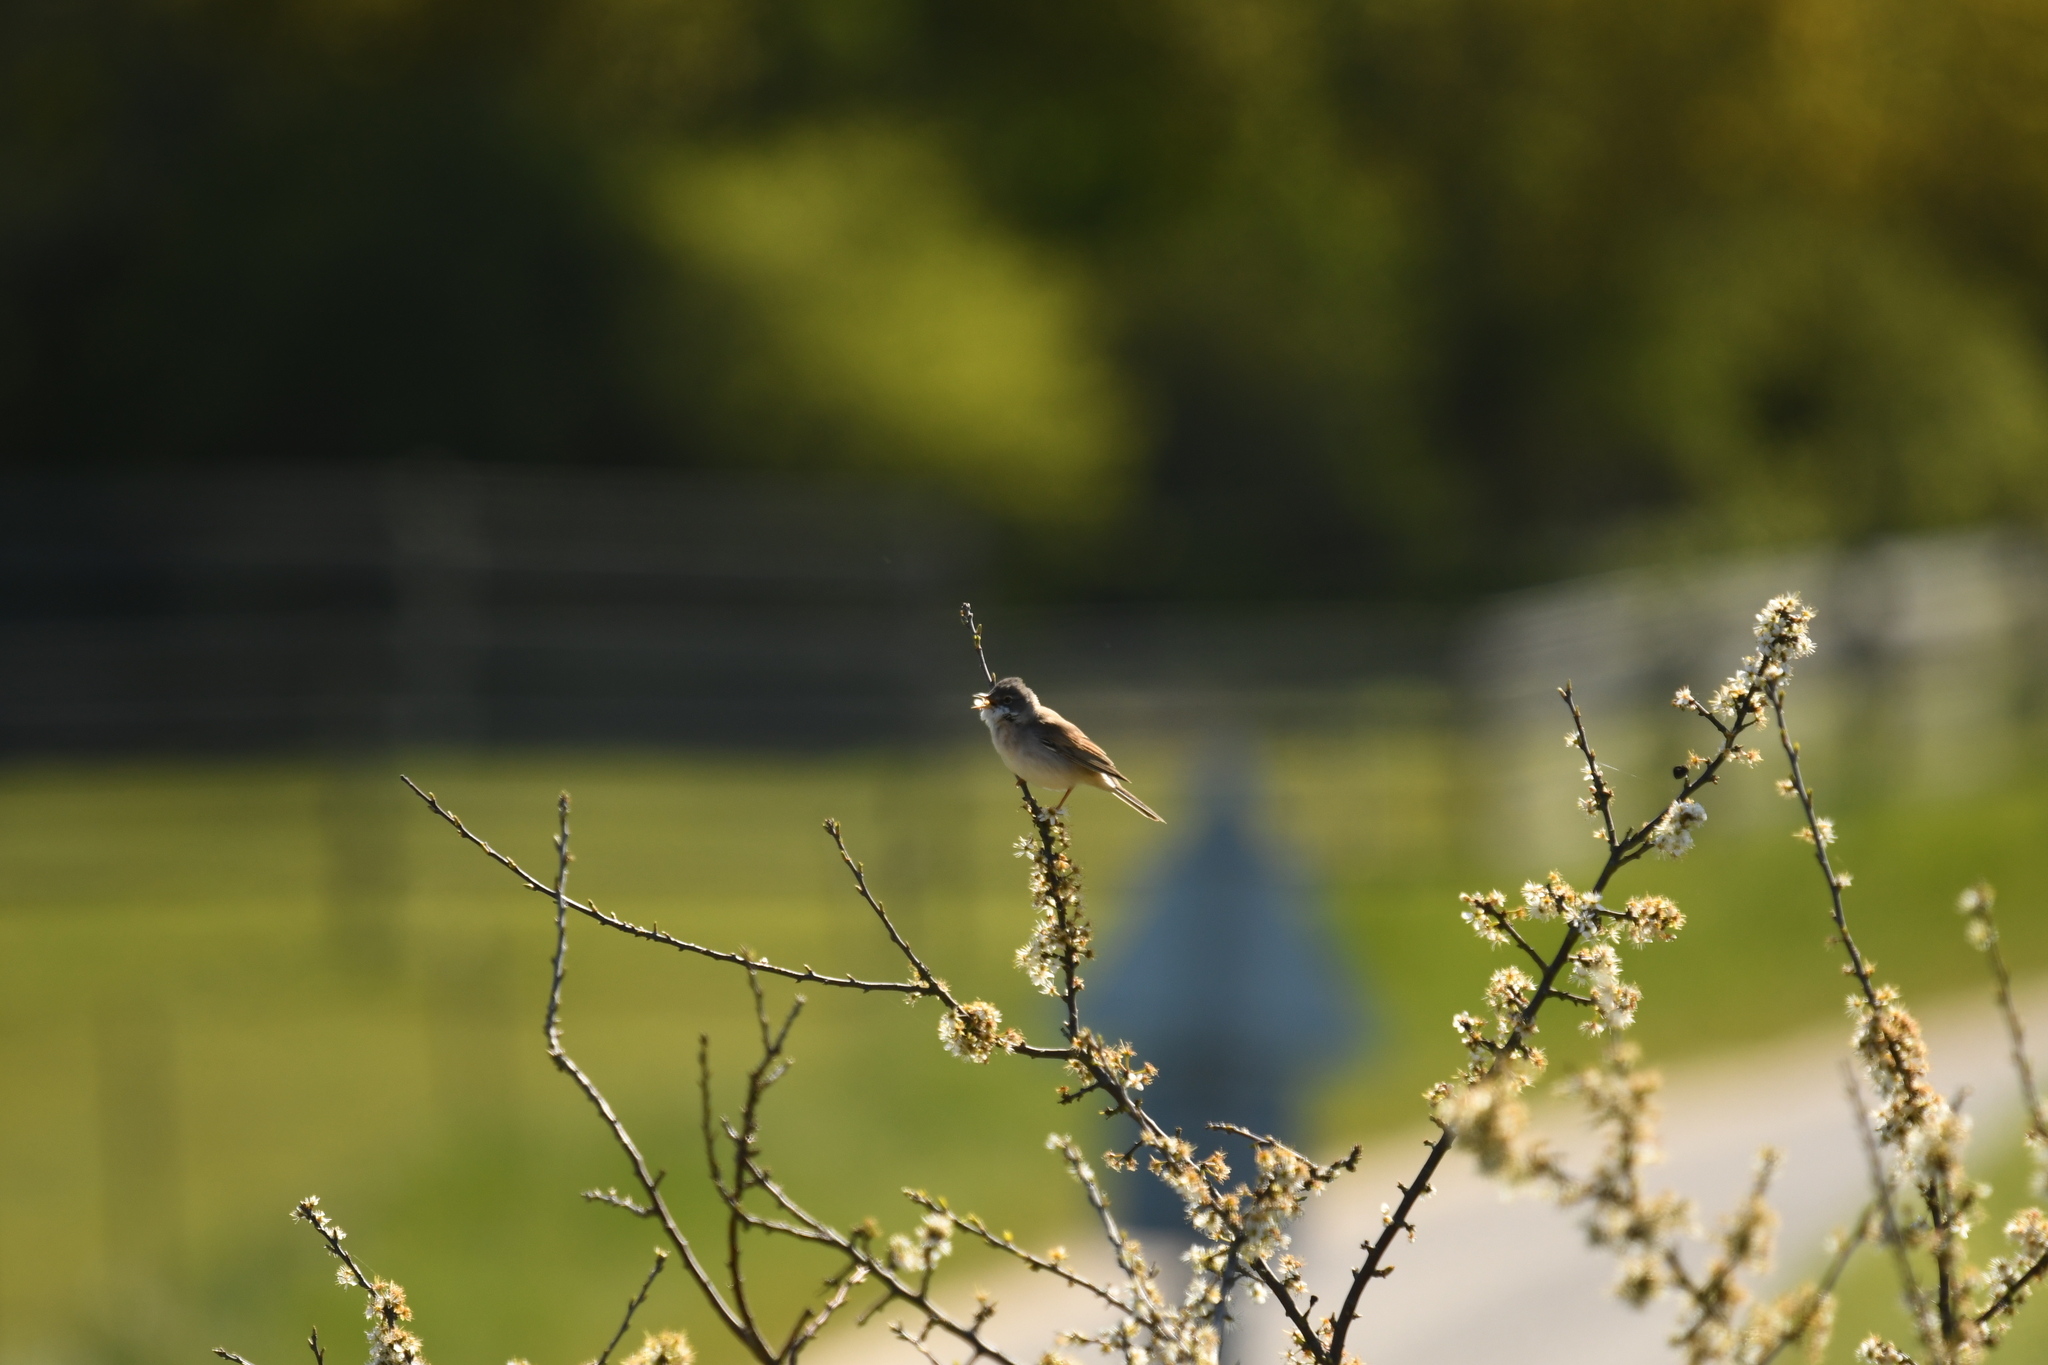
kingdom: Animalia
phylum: Chordata
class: Aves
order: Passeriformes
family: Sylviidae
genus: Sylvia
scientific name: Sylvia communis
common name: Common whitethroat
